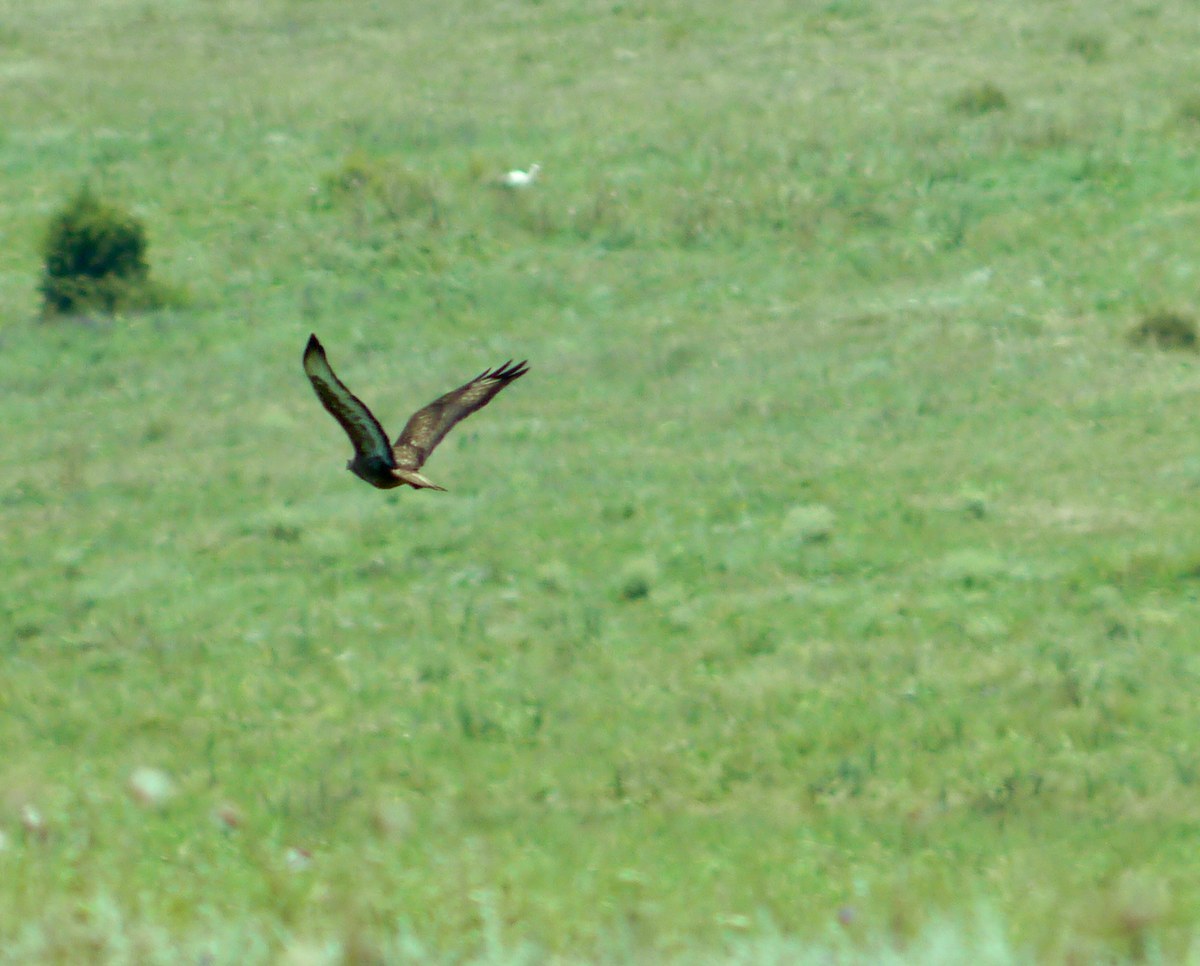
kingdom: Animalia
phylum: Chordata
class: Aves
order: Accipitriformes
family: Accipitridae
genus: Buteo
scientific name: Buteo buteo
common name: Common buzzard
